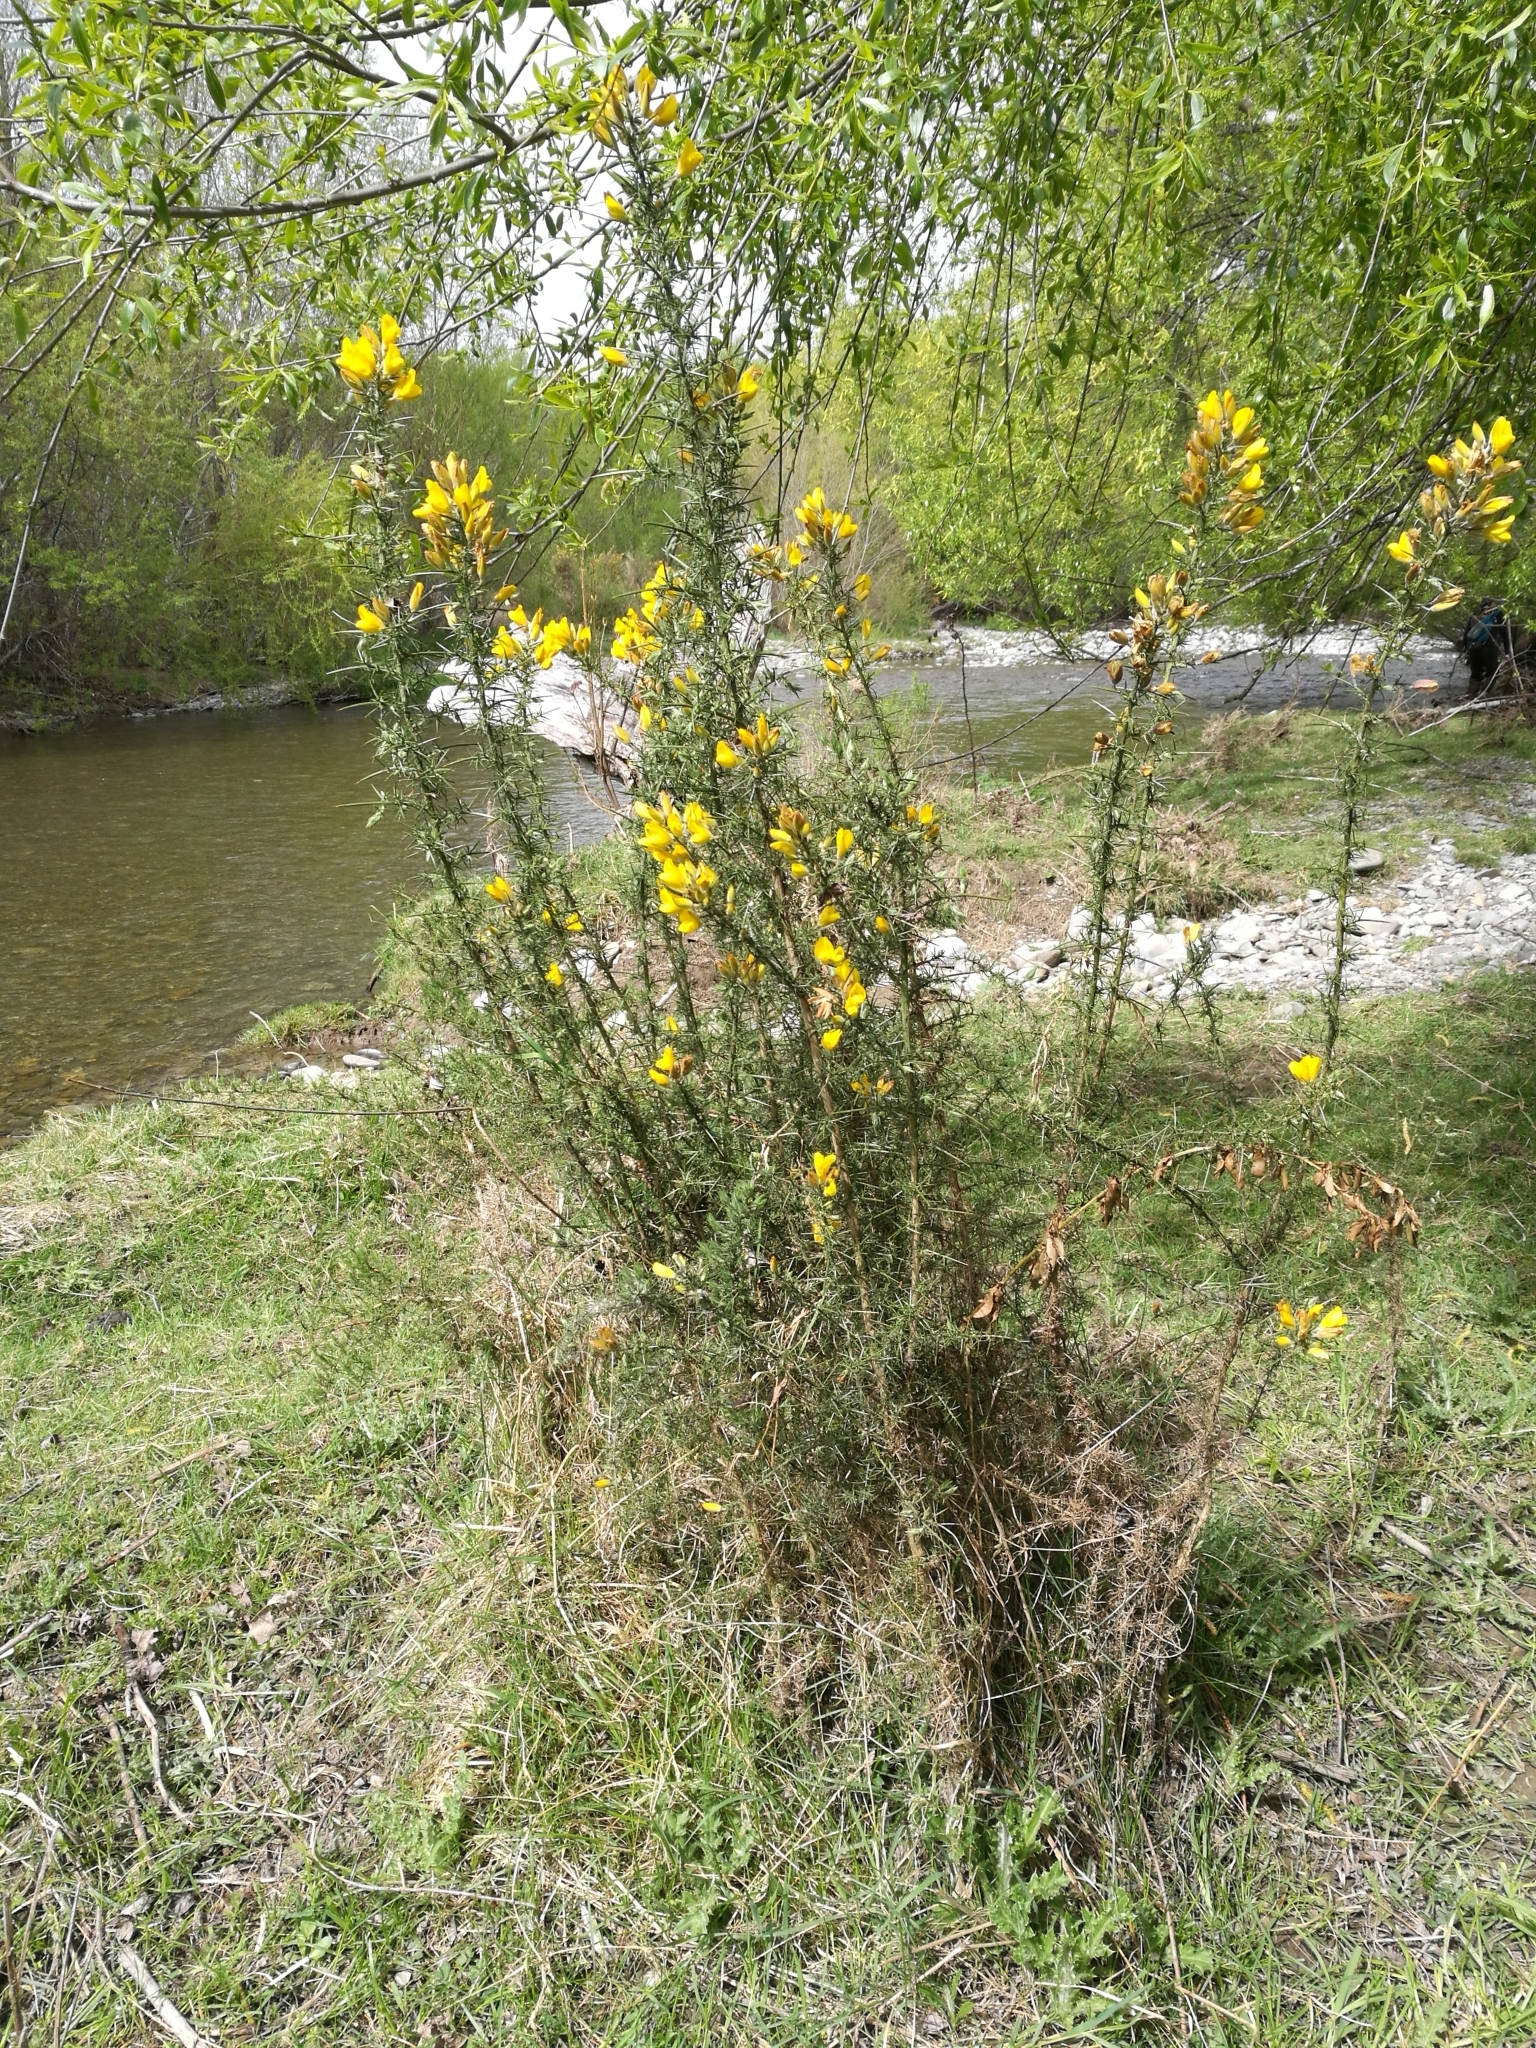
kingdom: Plantae
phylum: Tracheophyta
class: Magnoliopsida
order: Fabales
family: Fabaceae
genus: Ulex
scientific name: Ulex europaeus
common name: Common gorse
